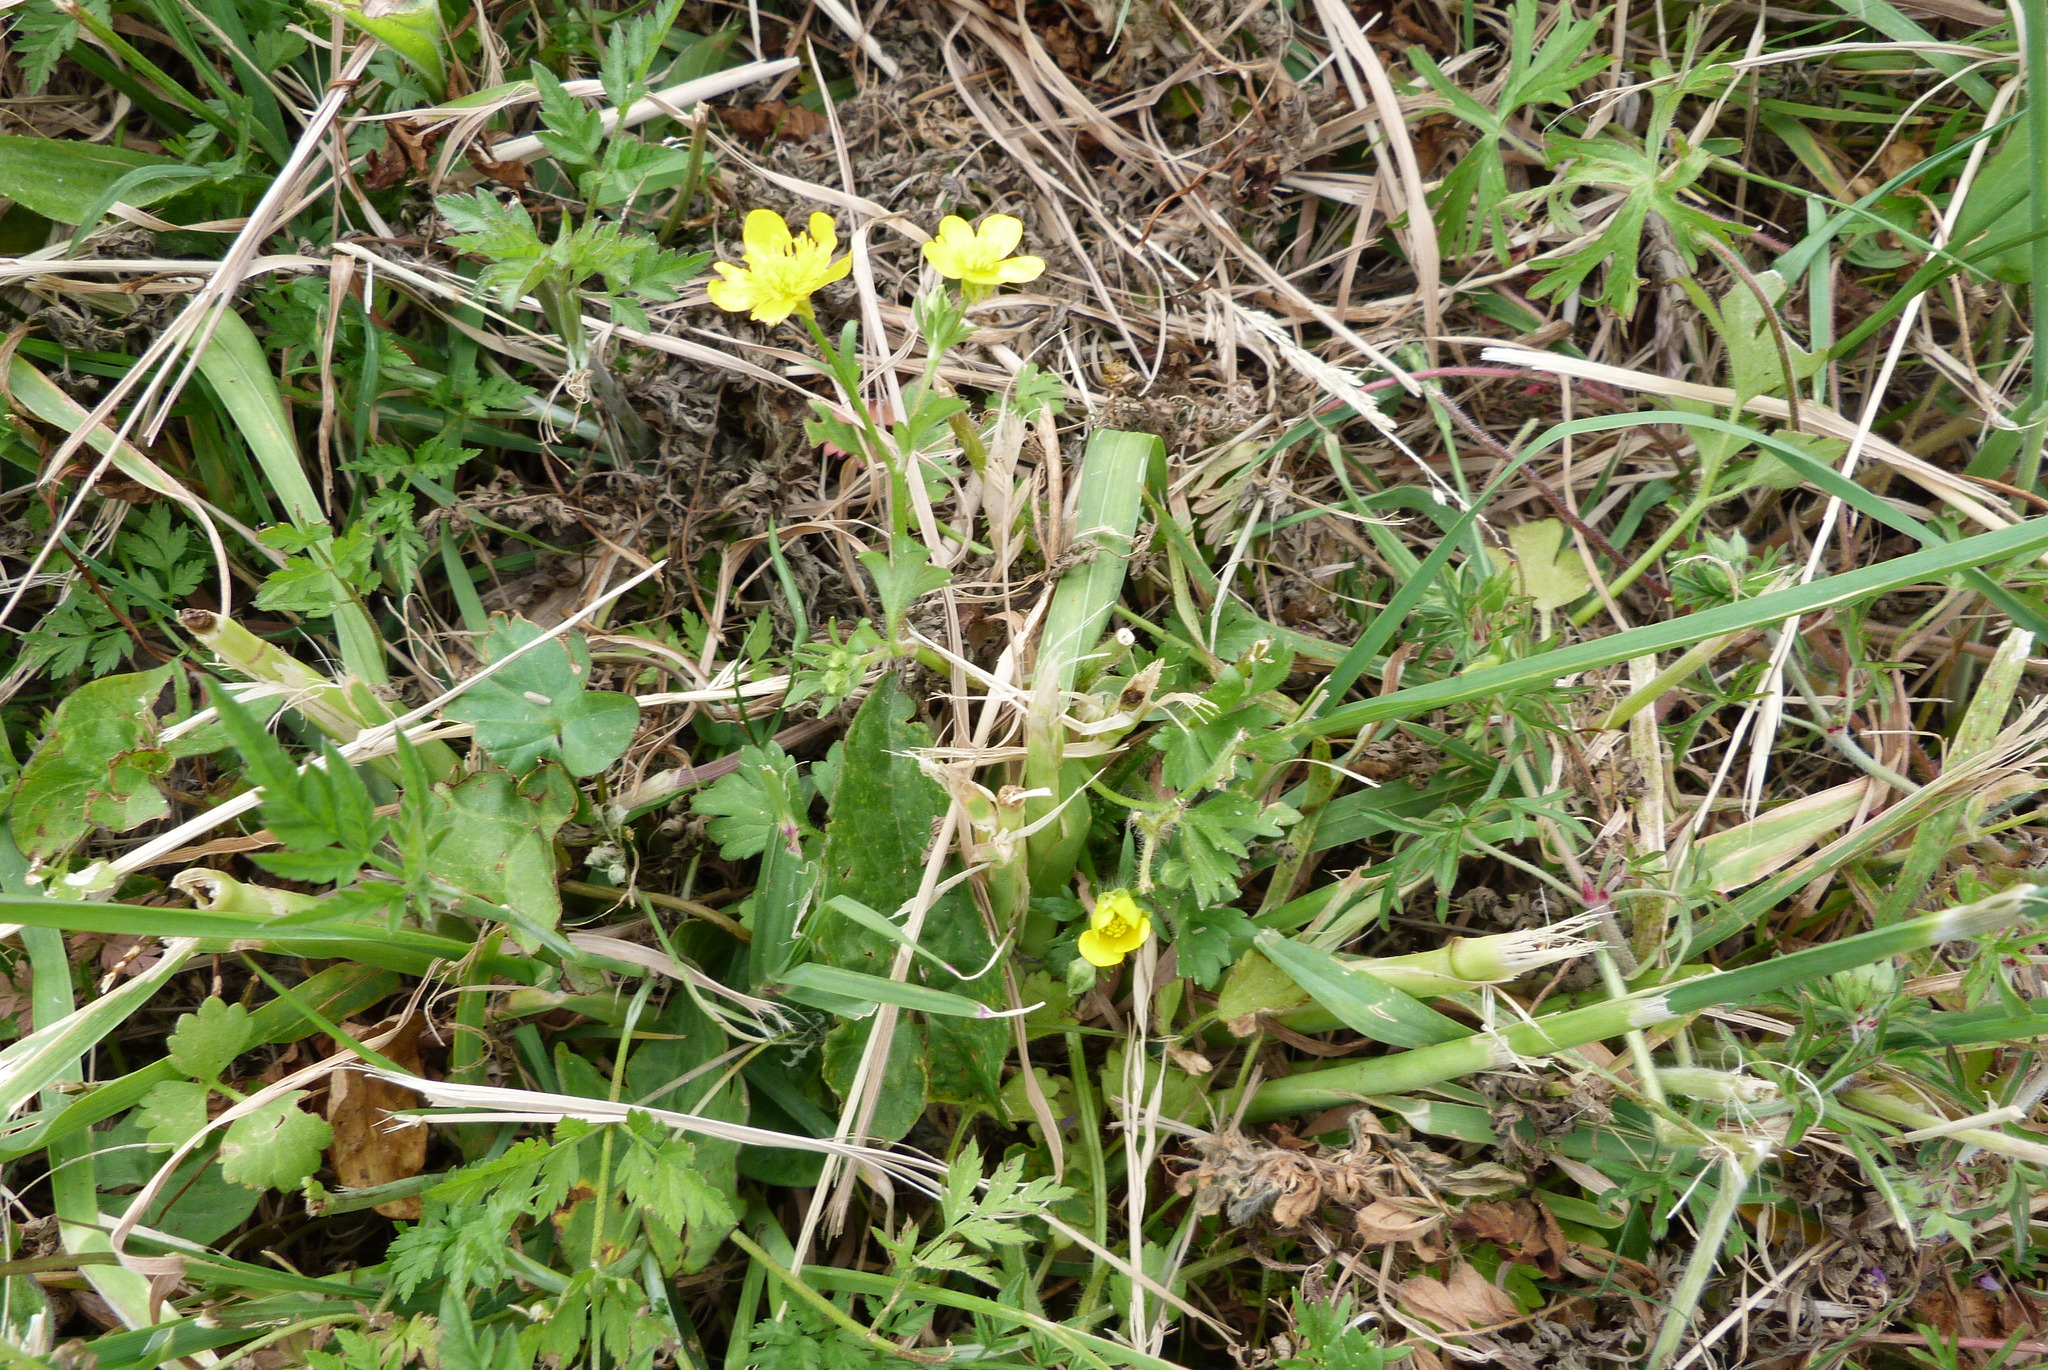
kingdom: Plantae
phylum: Tracheophyta
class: Magnoliopsida
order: Ranunculales
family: Ranunculaceae
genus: Ranunculus
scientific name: Ranunculus sardous
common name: Hairy buttercup
